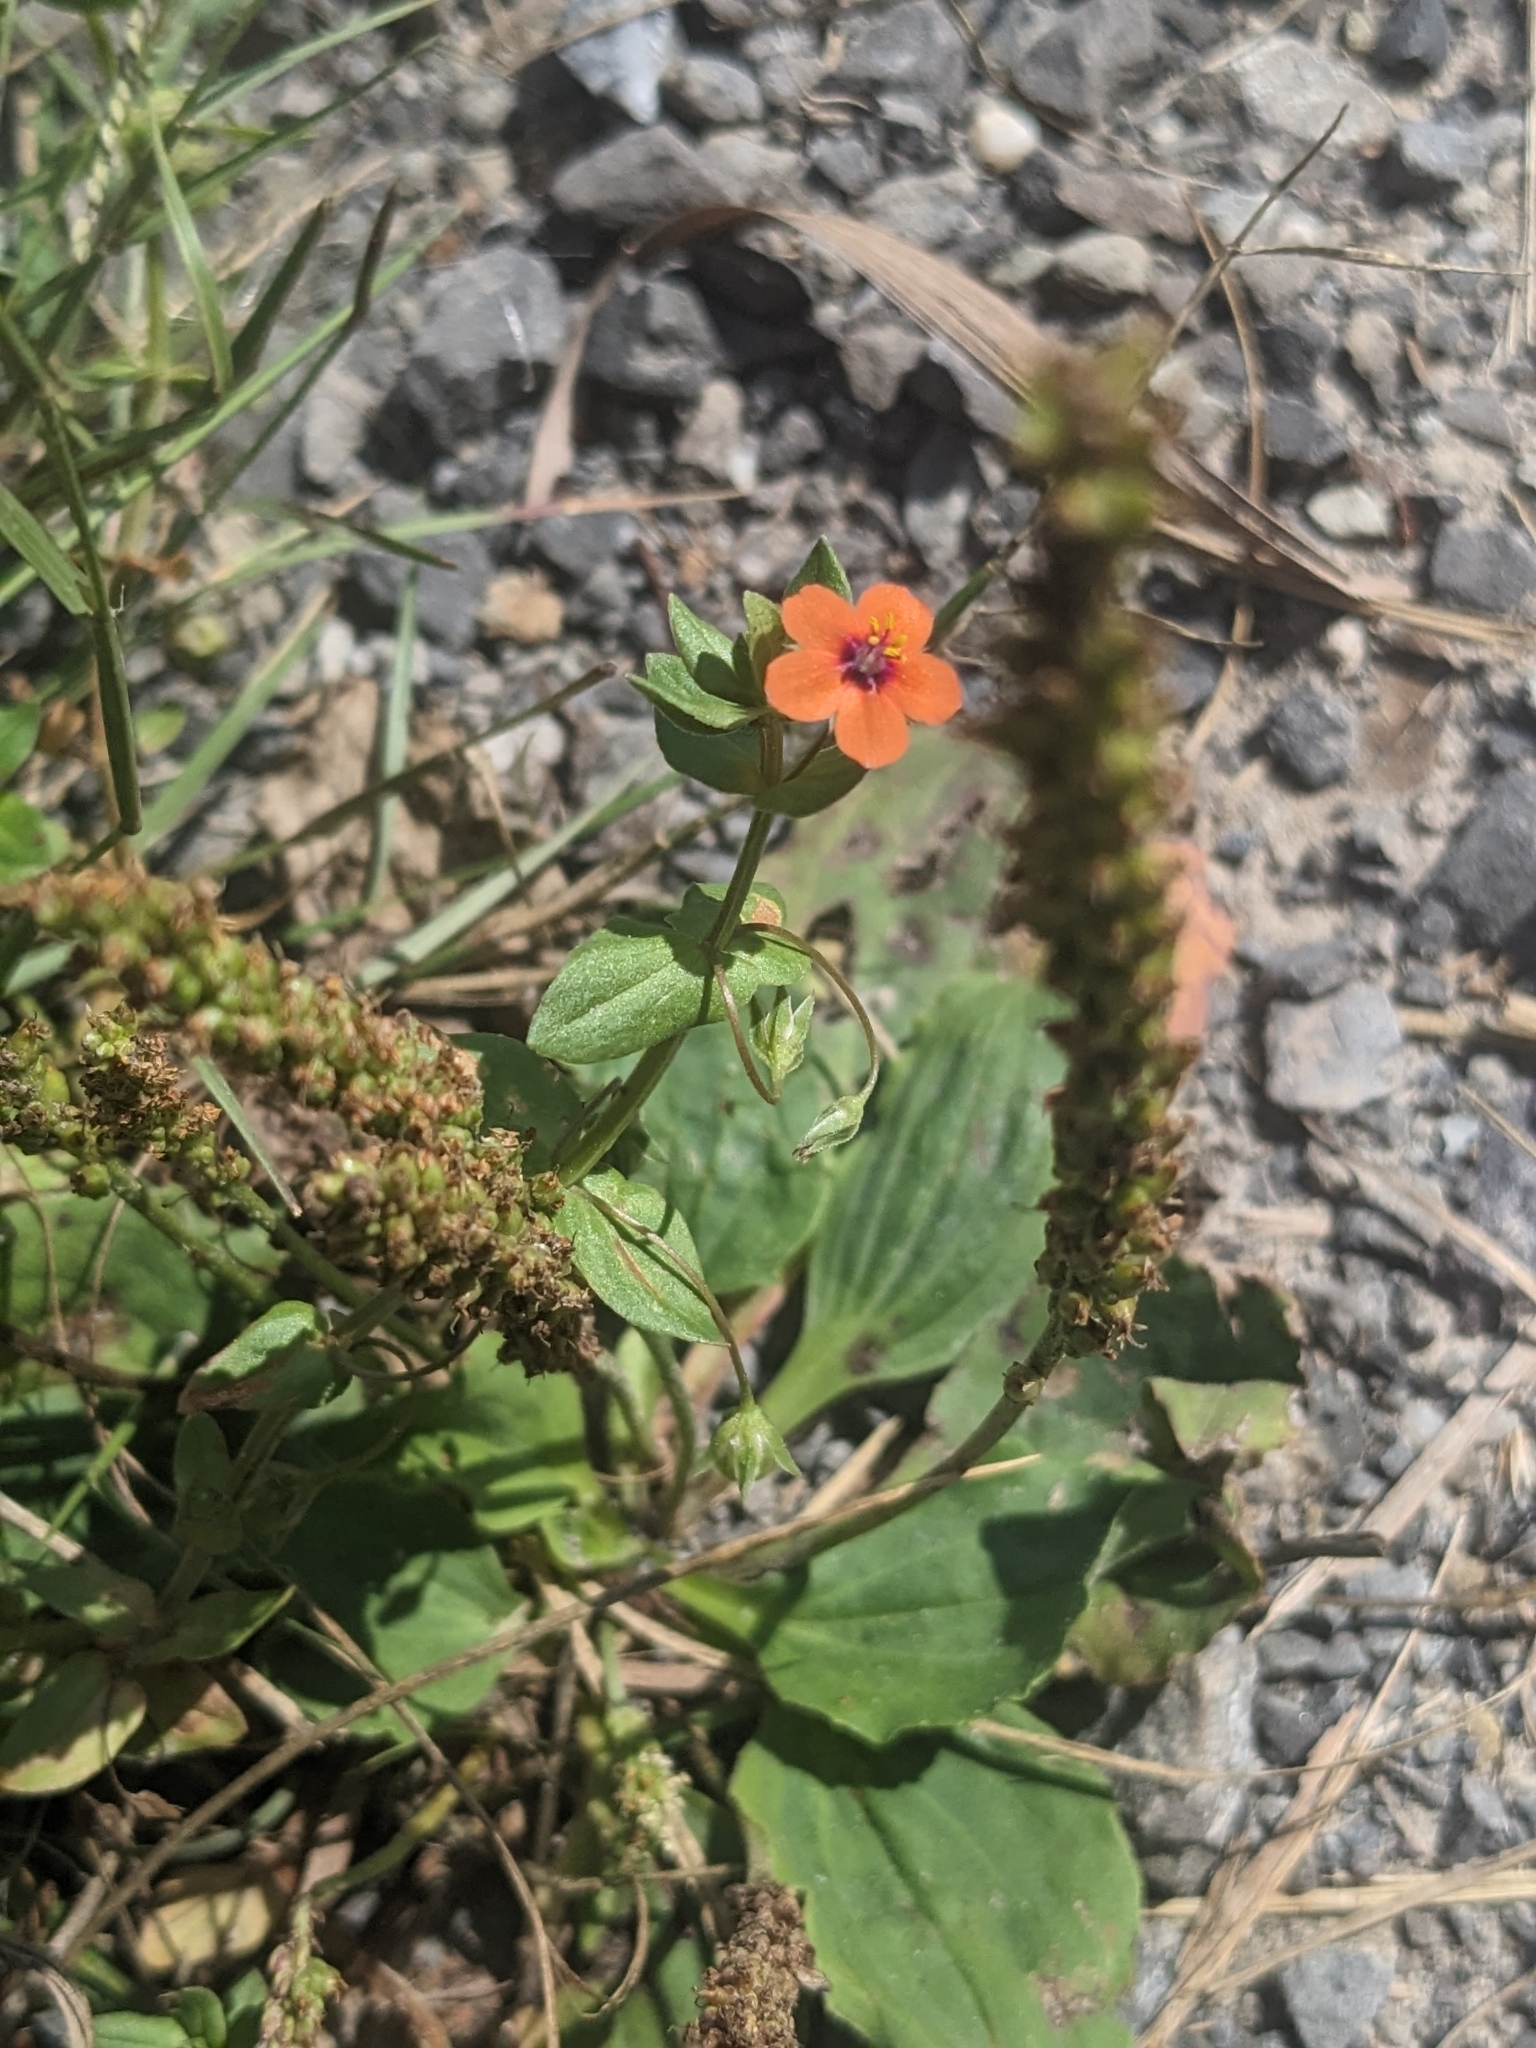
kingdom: Plantae
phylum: Tracheophyta
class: Magnoliopsida
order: Ericales
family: Primulaceae
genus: Lysimachia
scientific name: Lysimachia arvensis
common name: Scarlet pimpernel
